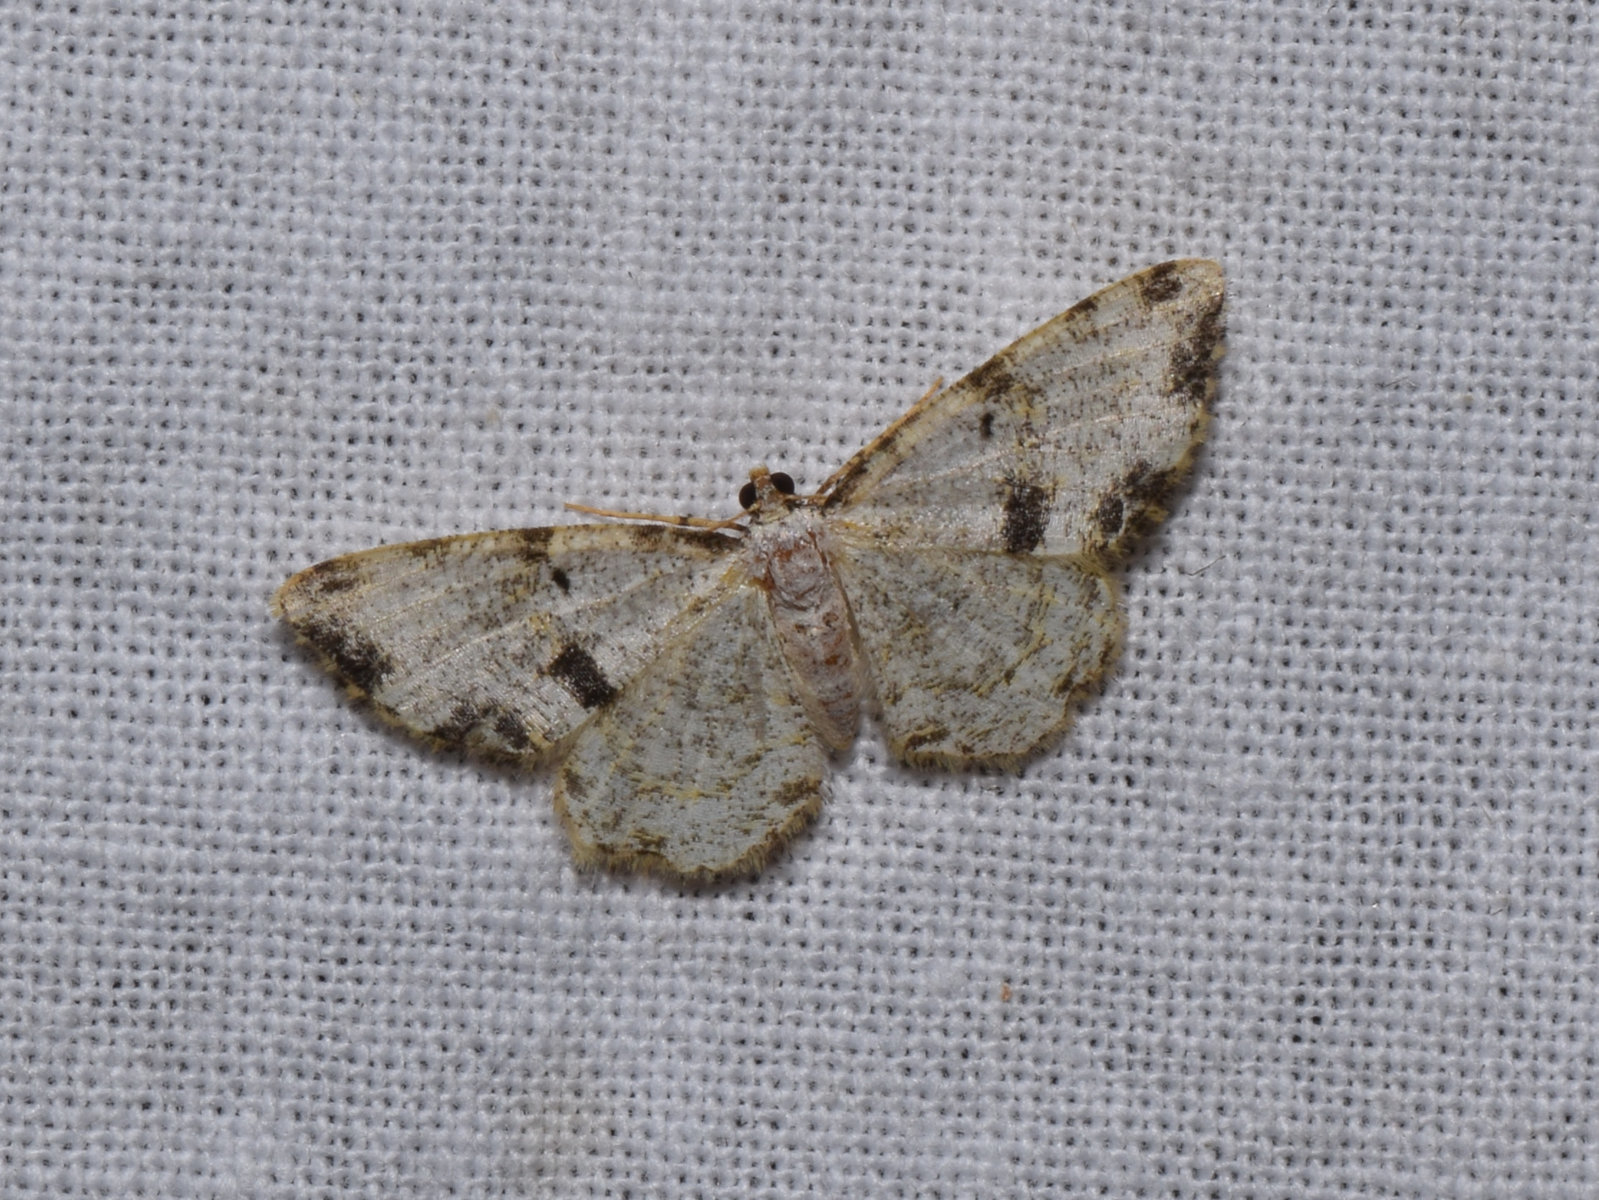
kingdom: Animalia
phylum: Arthropoda
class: Insecta
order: Lepidoptera
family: Geometridae
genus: Monocerotesa
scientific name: Monocerotesa
